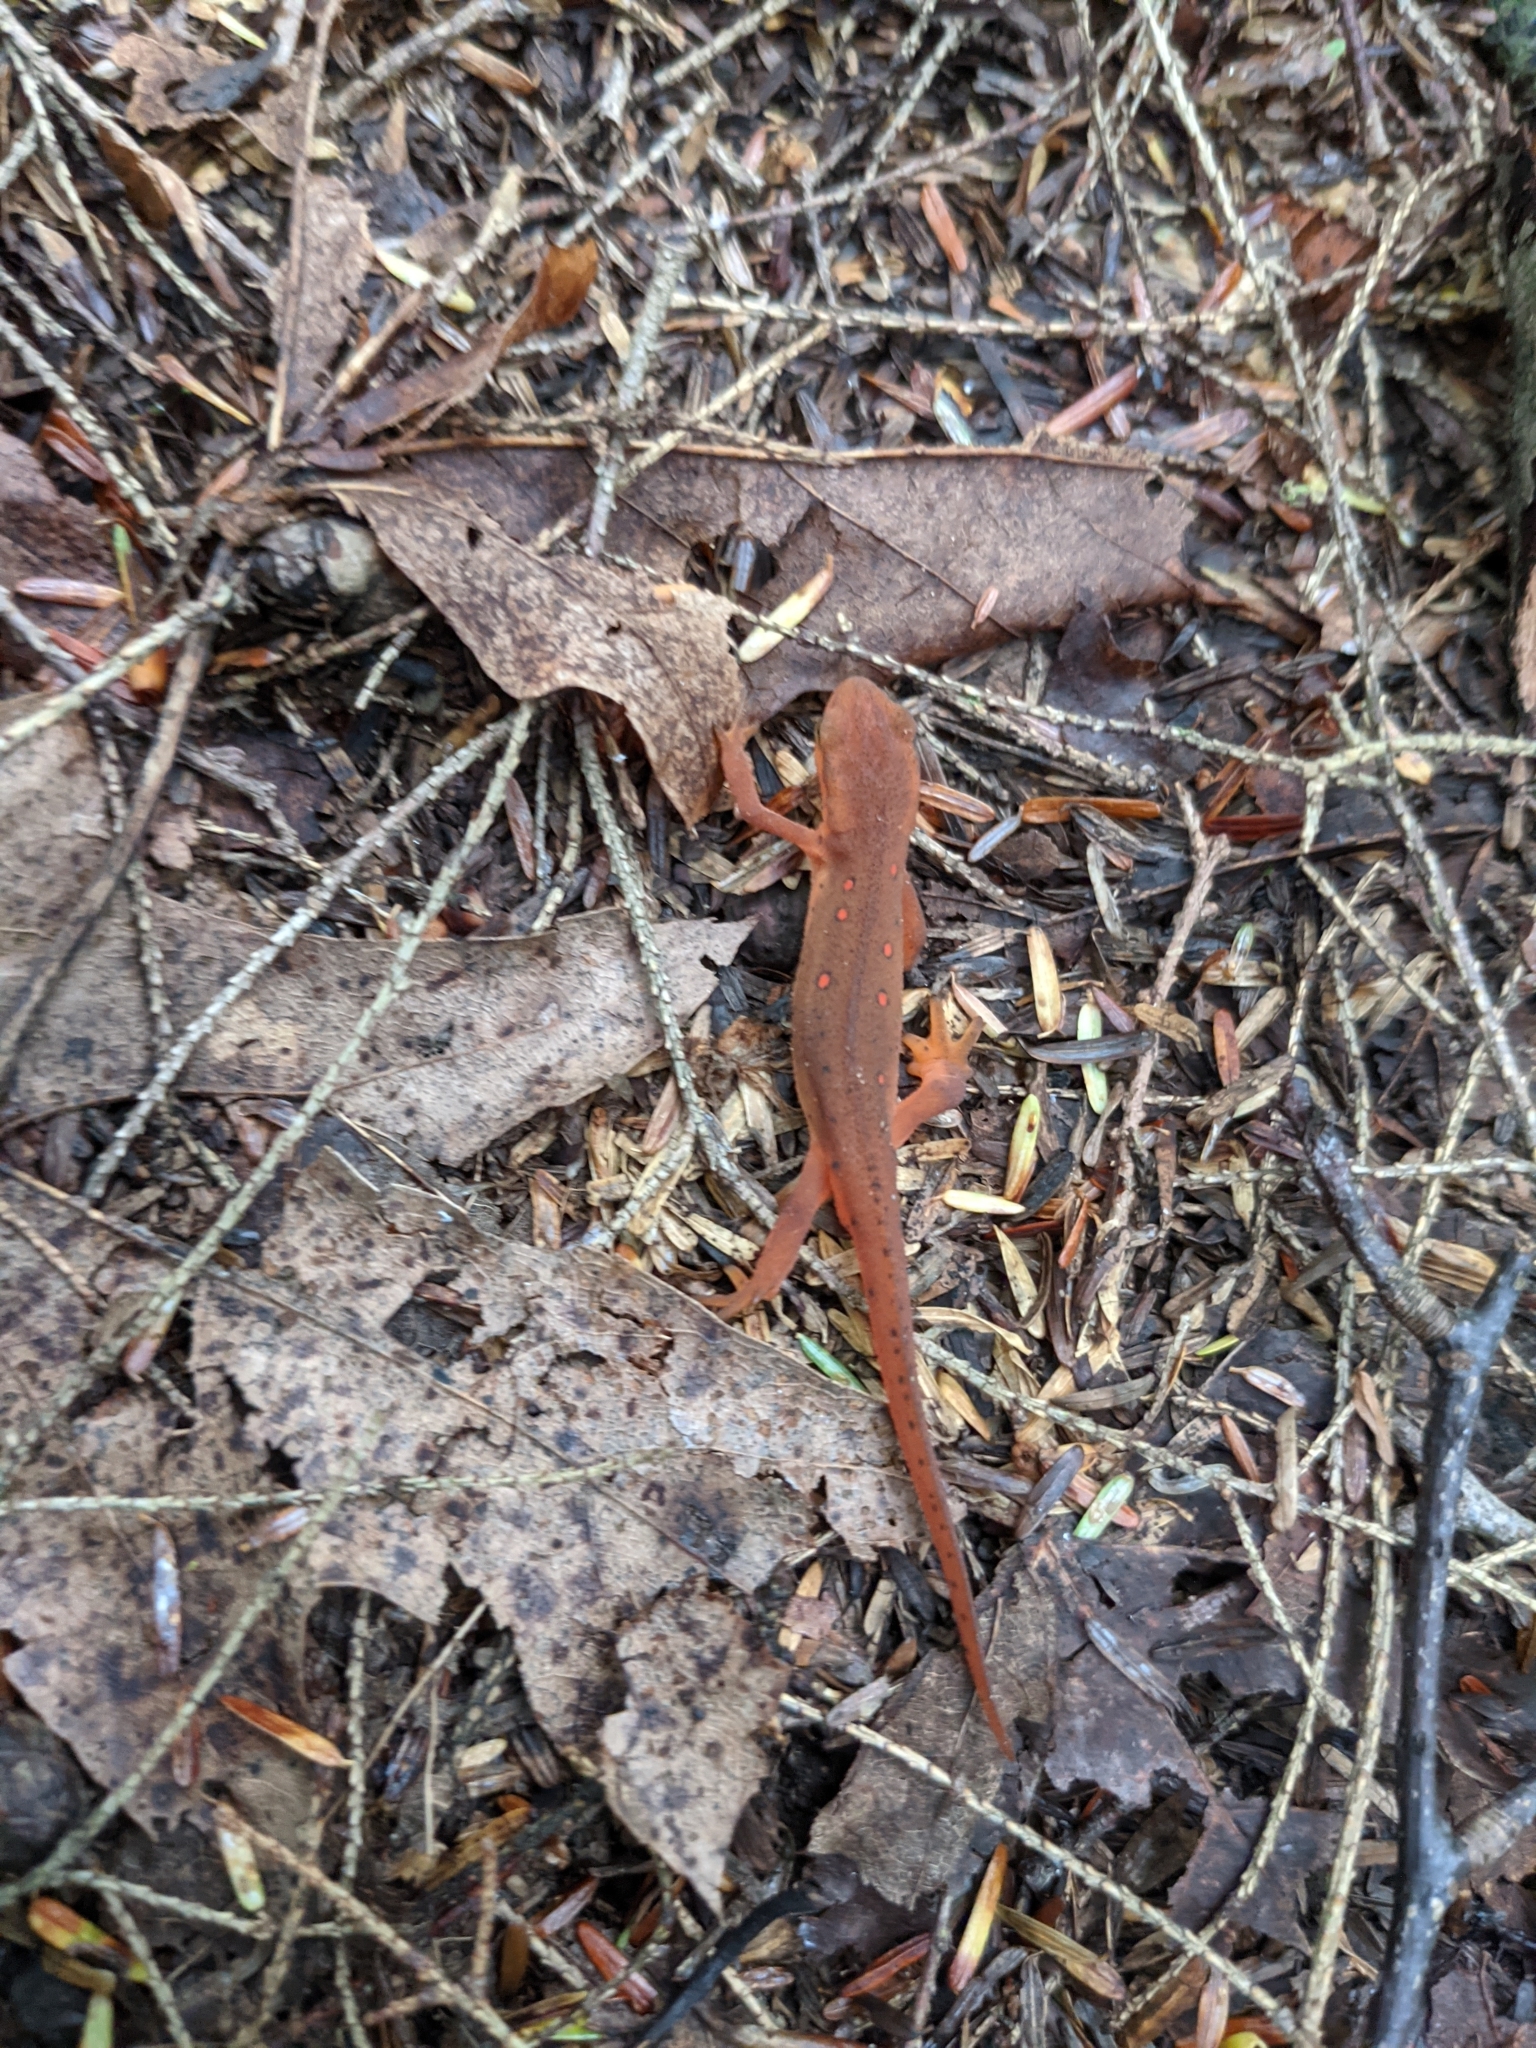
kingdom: Animalia
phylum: Chordata
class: Amphibia
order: Caudata
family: Salamandridae
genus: Notophthalmus
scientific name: Notophthalmus viridescens
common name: Eastern newt
